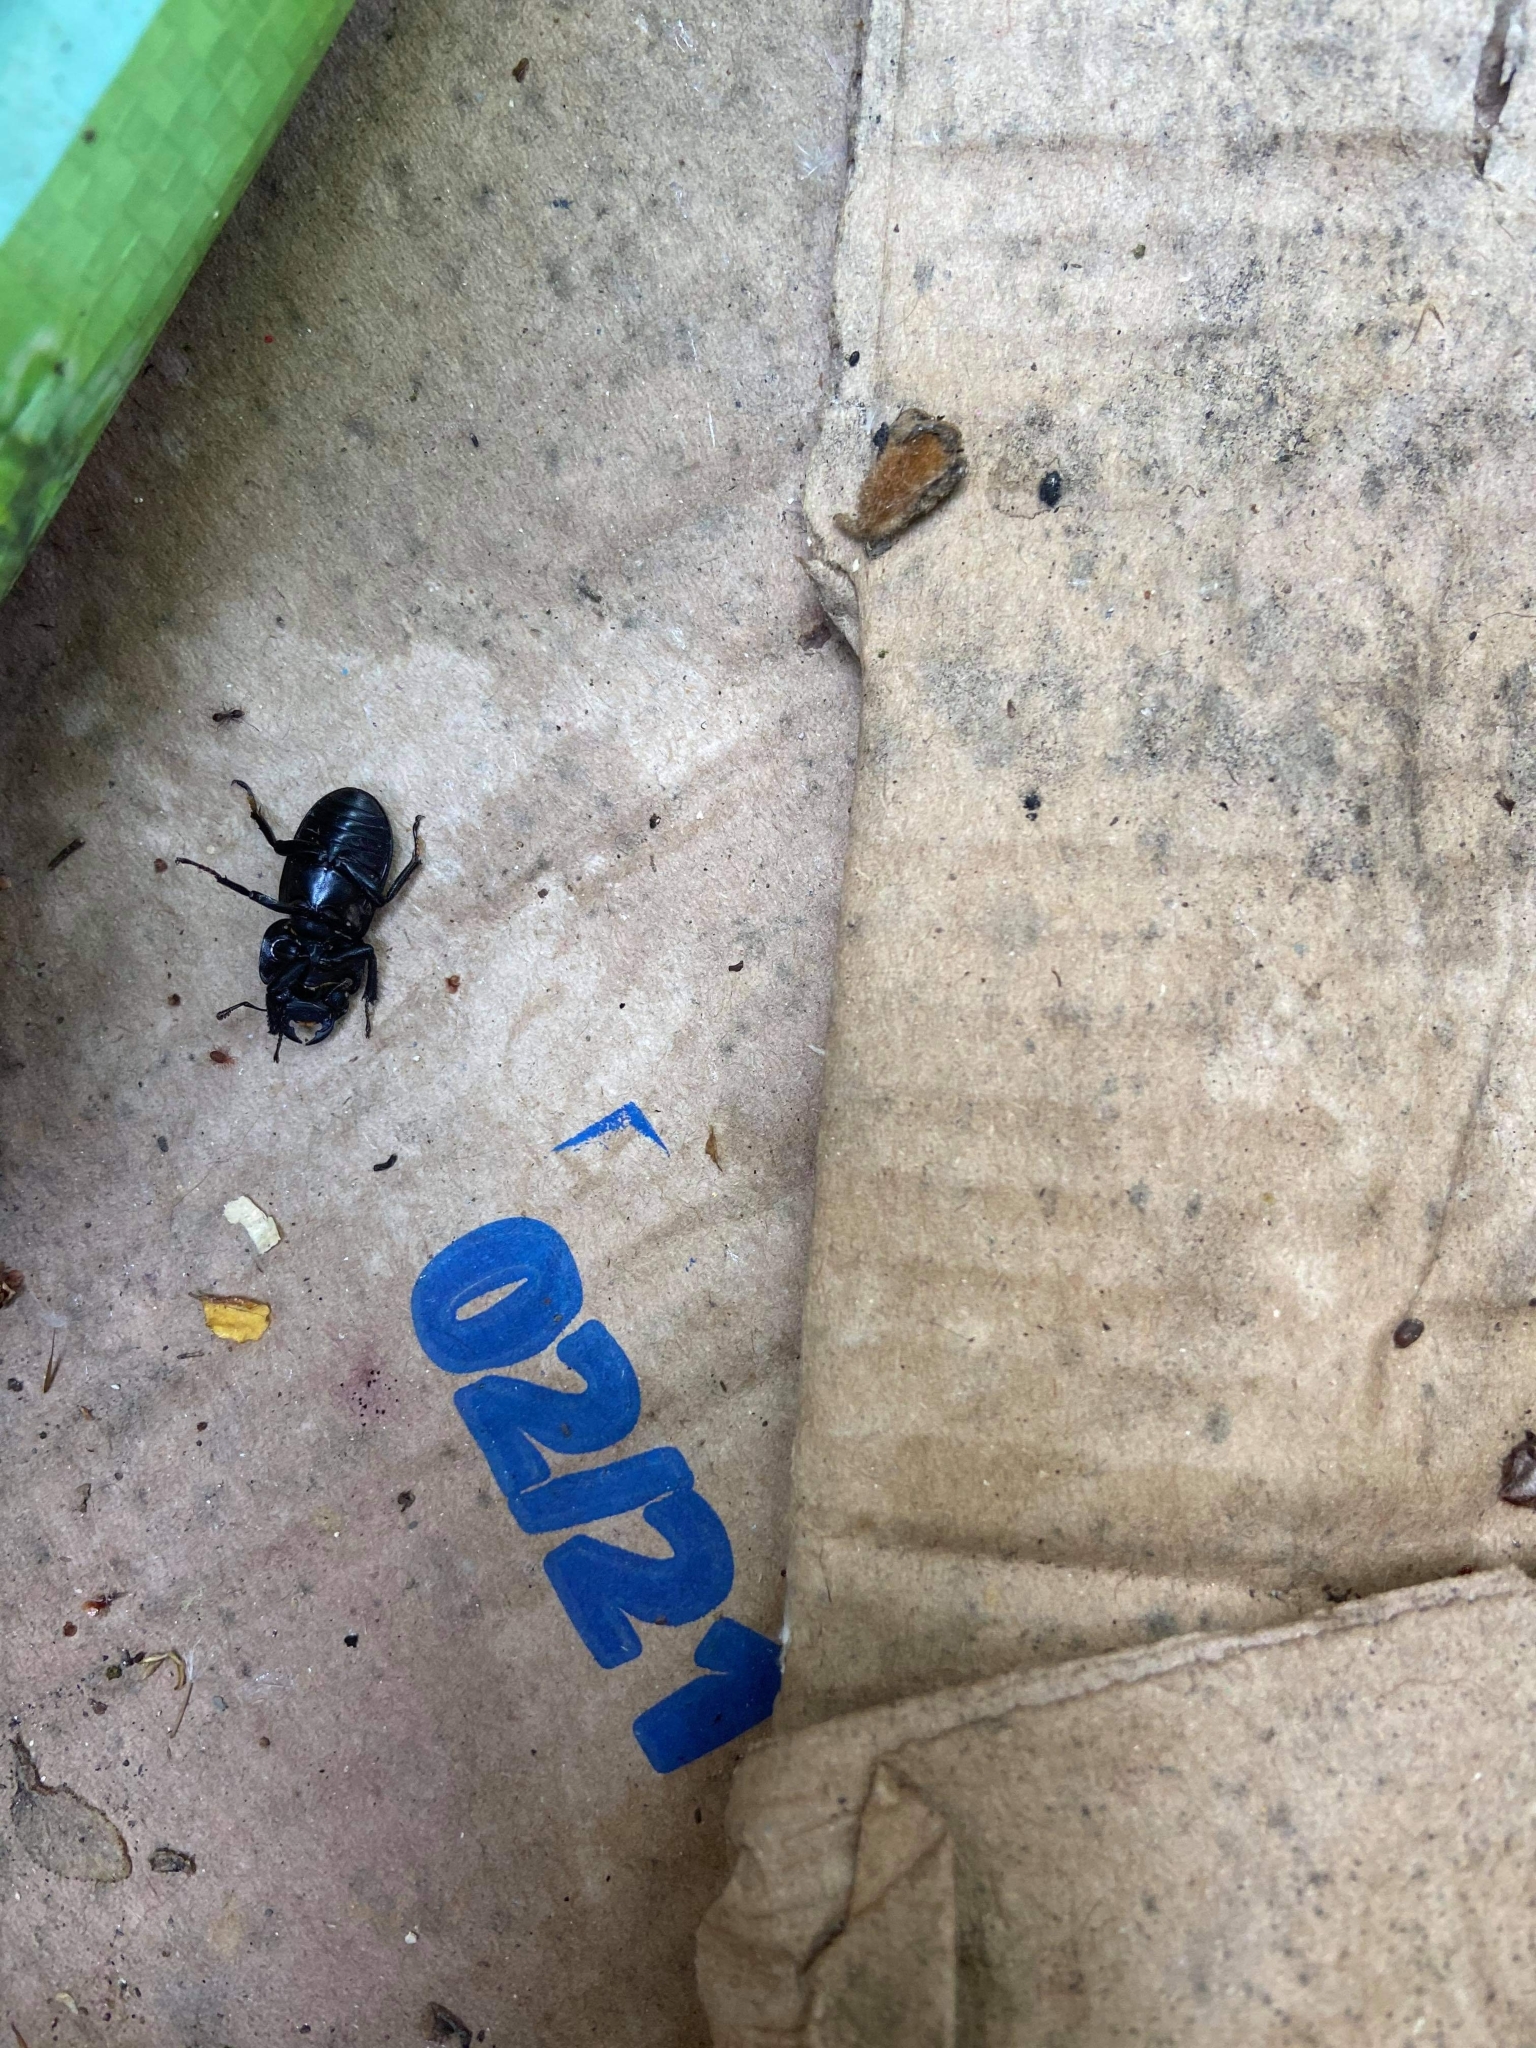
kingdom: Animalia
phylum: Arthropoda
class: Insecta
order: Coleoptera
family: Lucanidae
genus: Dorcus
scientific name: Dorcus parallelipipedus
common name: Lesser stag beetle
